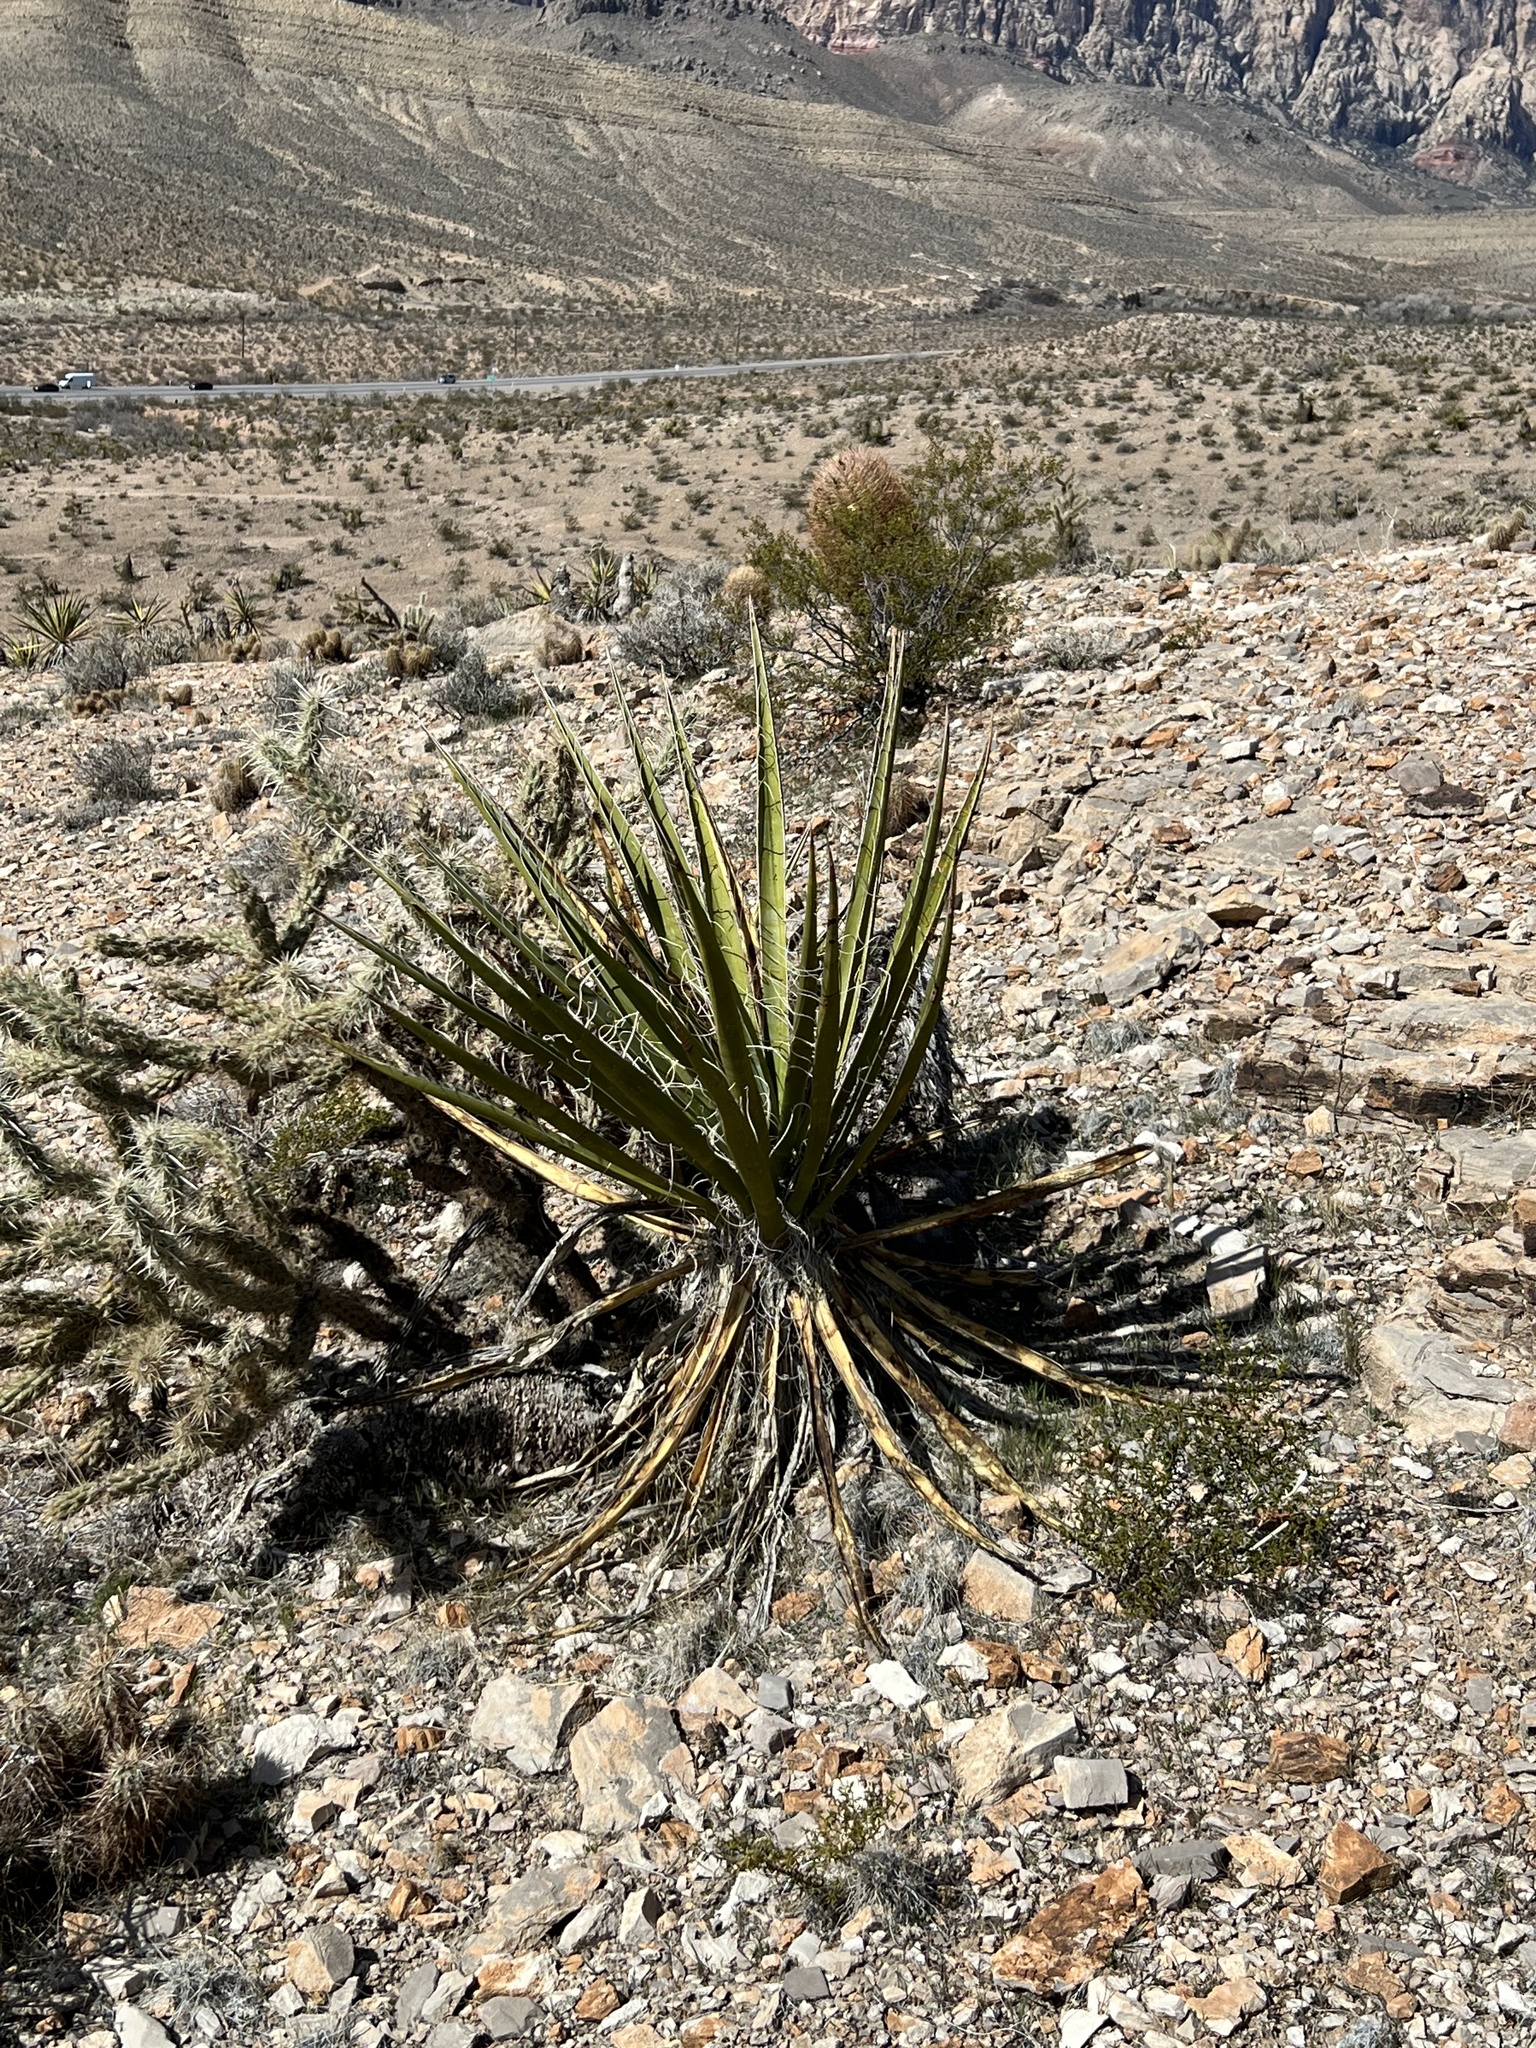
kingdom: Plantae
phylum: Tracheophyta
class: Liliopsida
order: Asparagales
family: Asparagaceae
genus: Yucca
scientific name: Yucca schidigera
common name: Mojave yucca
